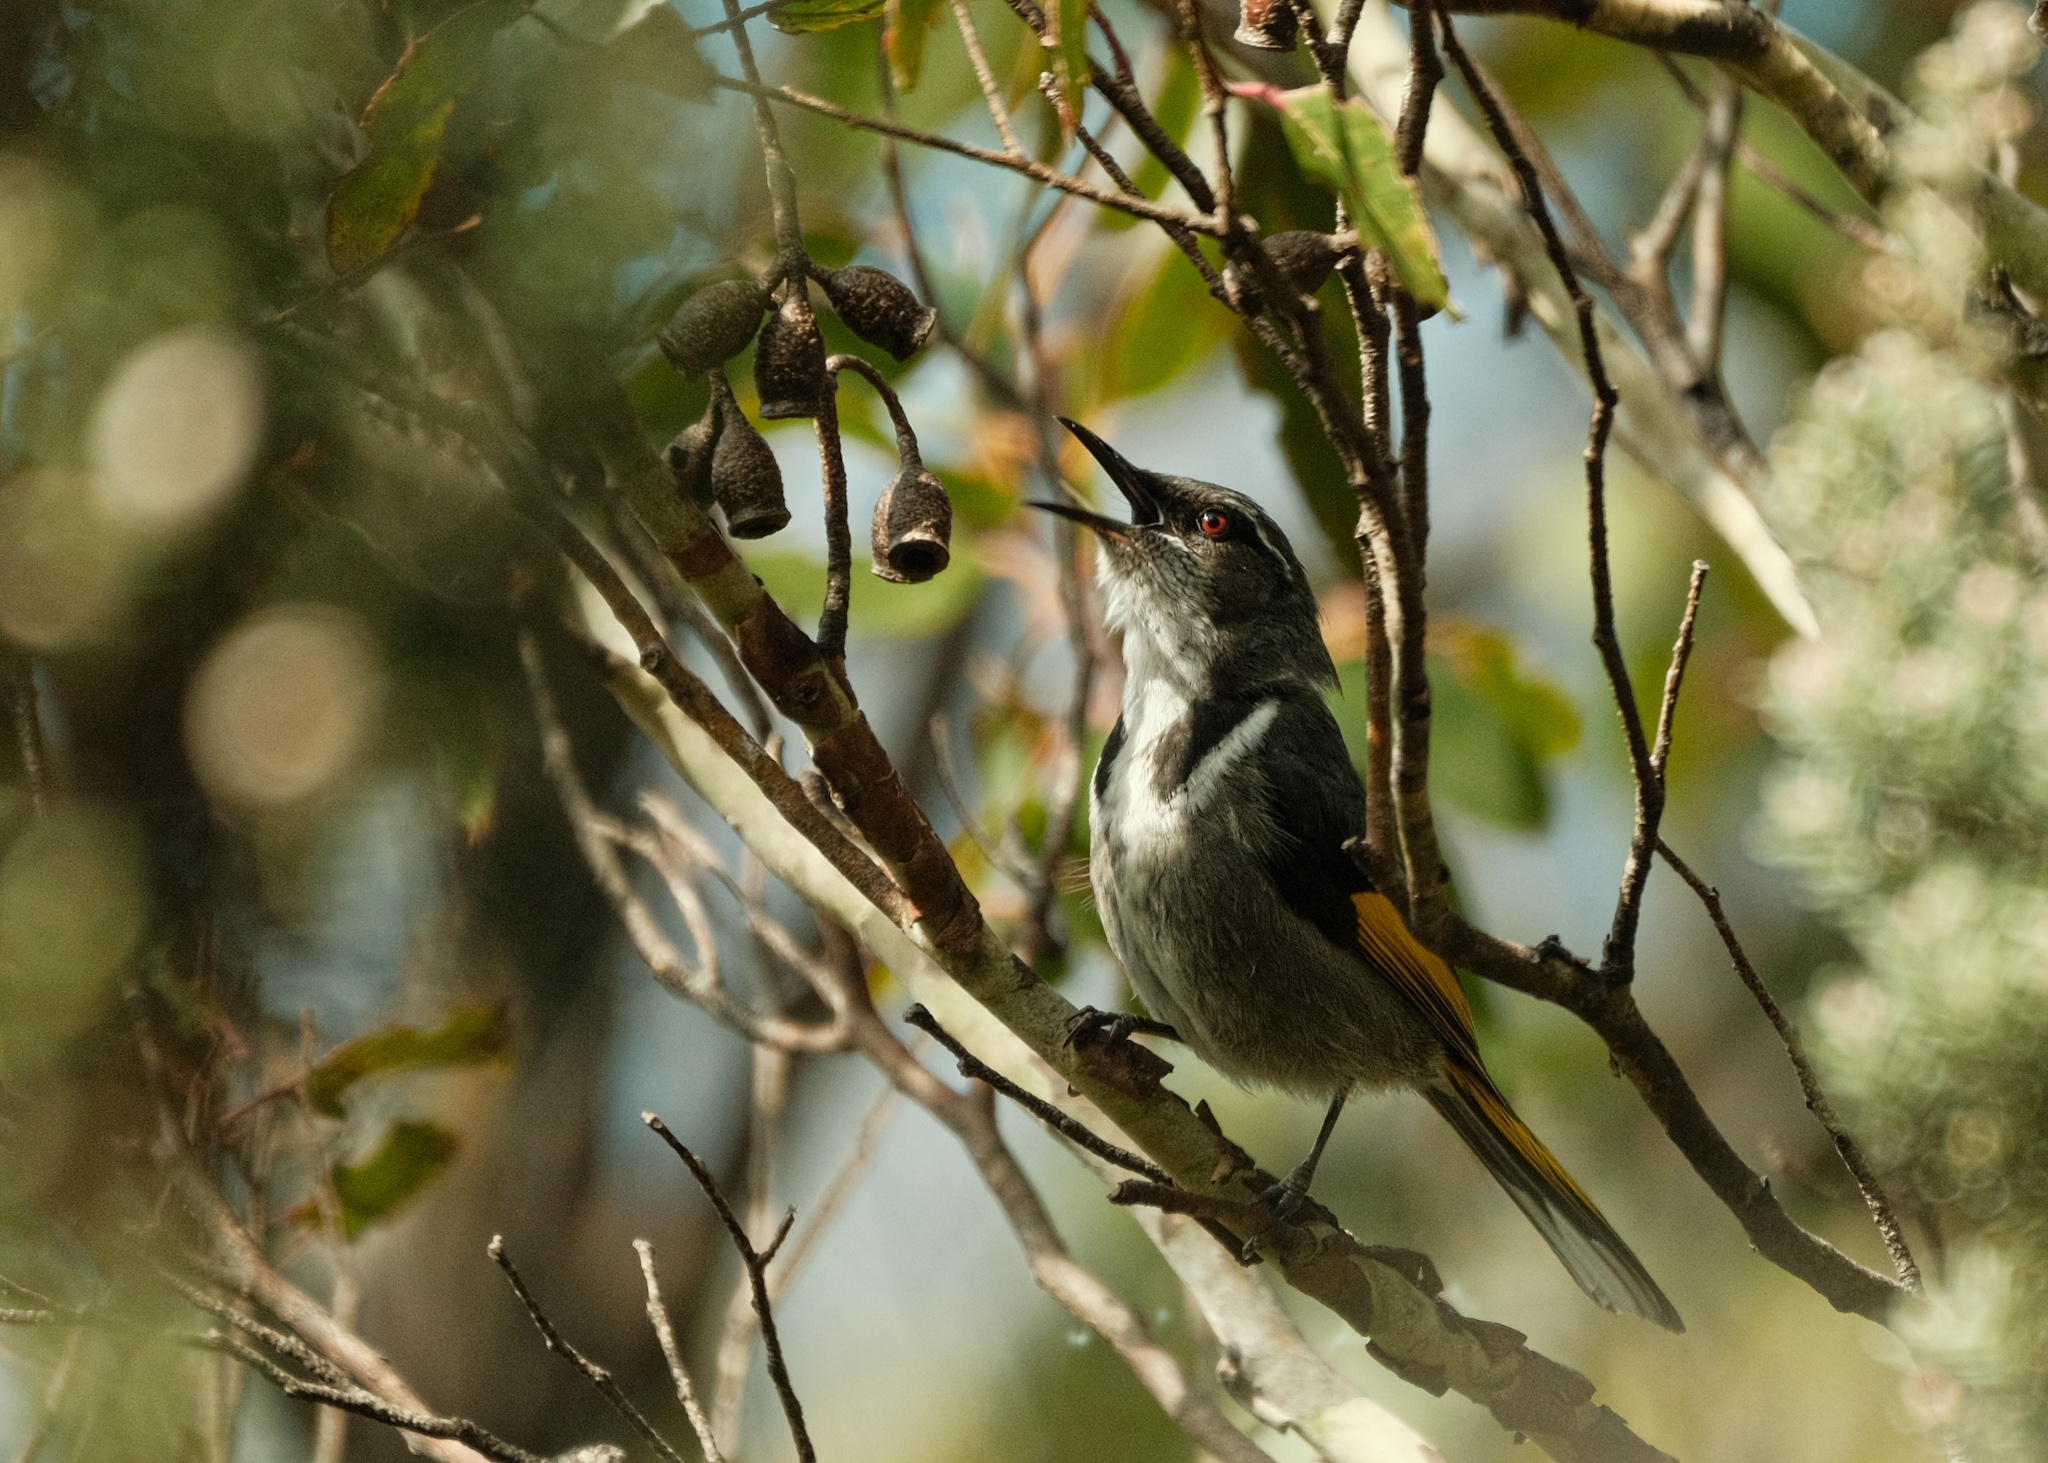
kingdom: Animalia
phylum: Chordata
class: Aves
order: Passeriformes
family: Meliphagidae
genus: Phylidonyris
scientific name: Phylidonyris pyrrhopterus
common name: Crescent honeyeater
